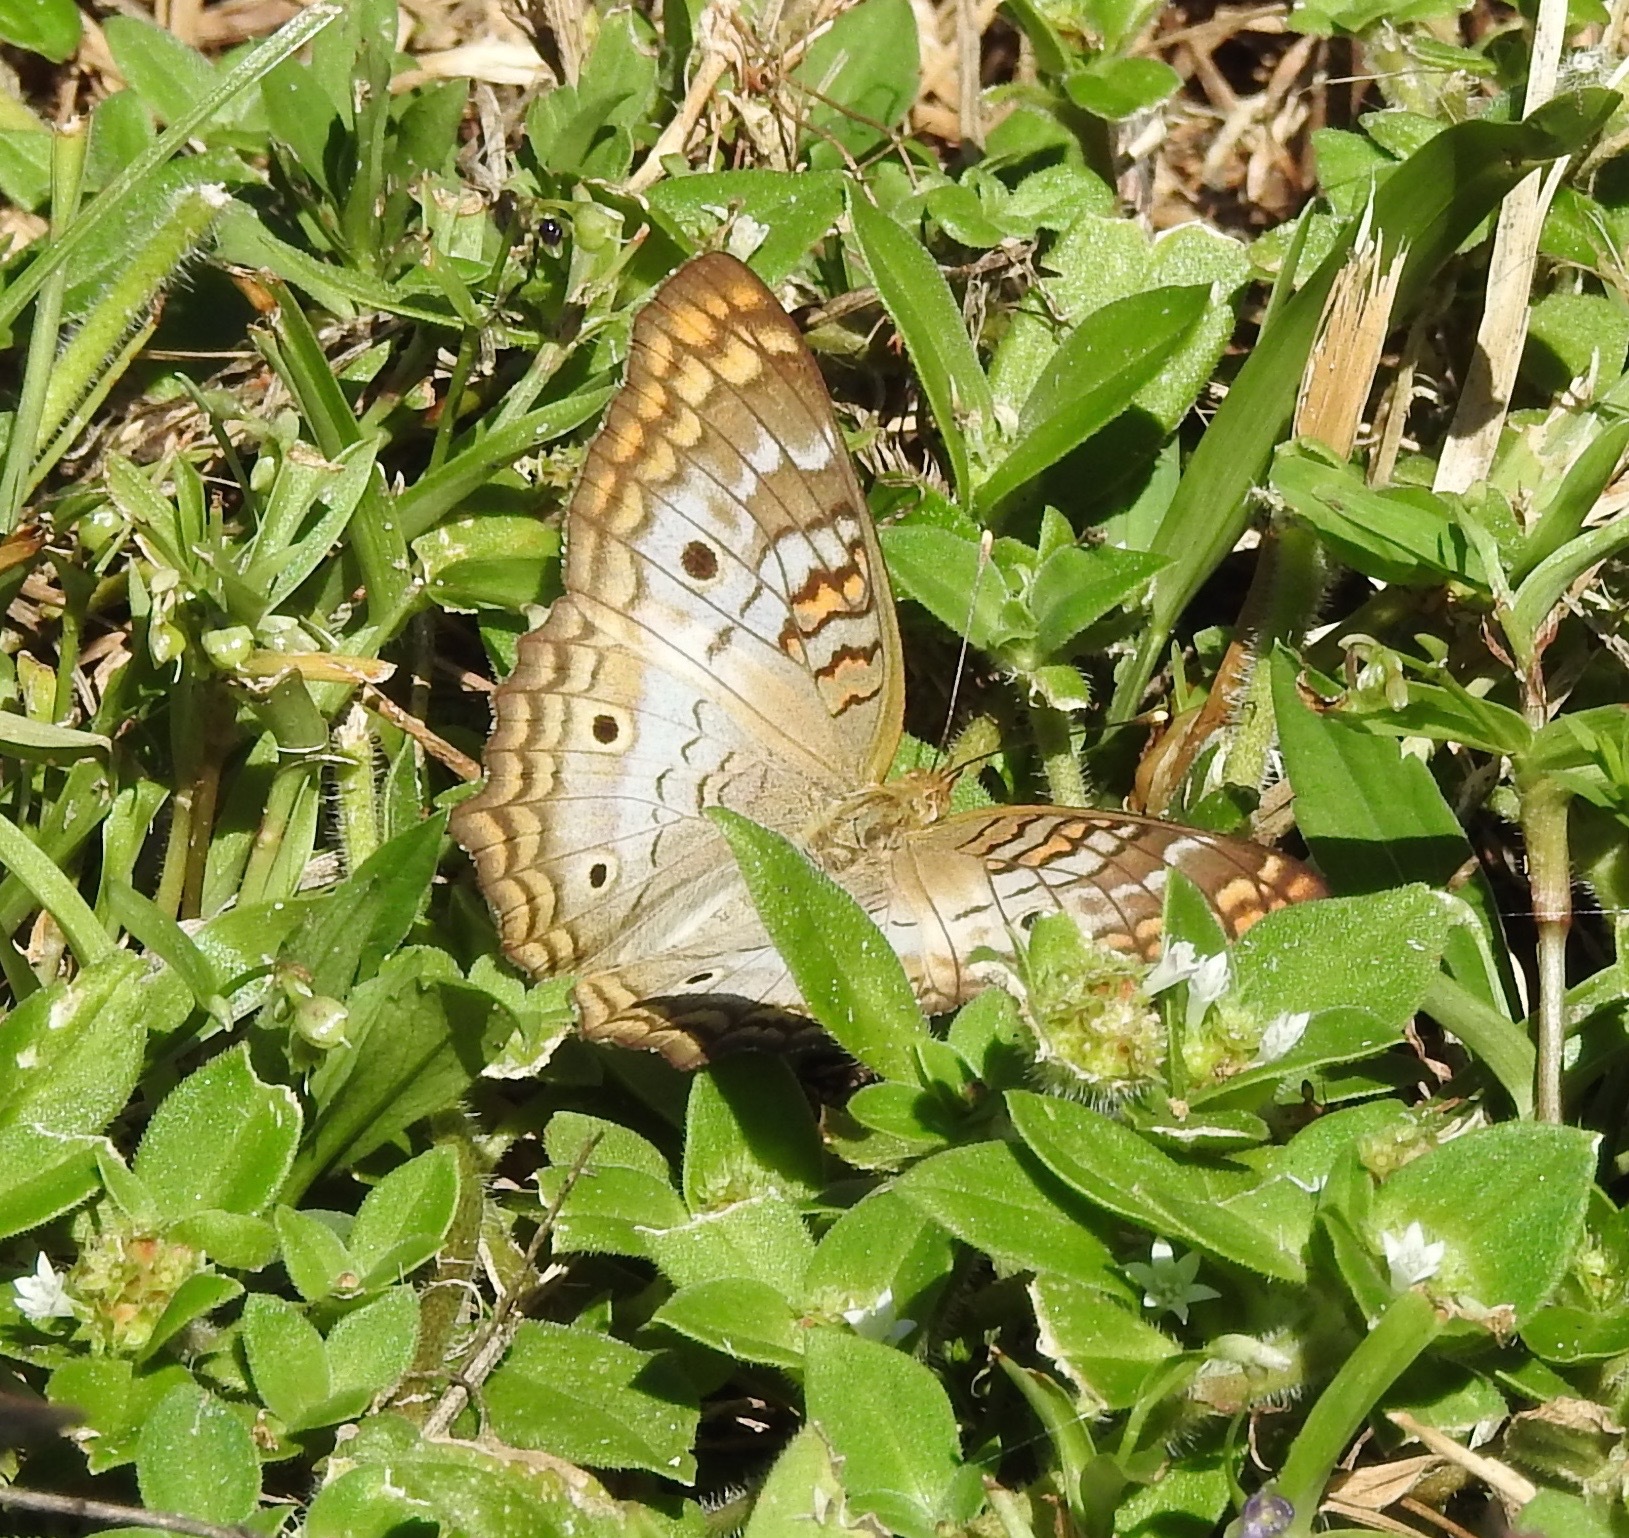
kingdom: Animalia
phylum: Arthropoda
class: Insecta
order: Lepidoptera
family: Nymphalidae
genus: Anartia
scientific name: Anartia jatrophae
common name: White peacock
